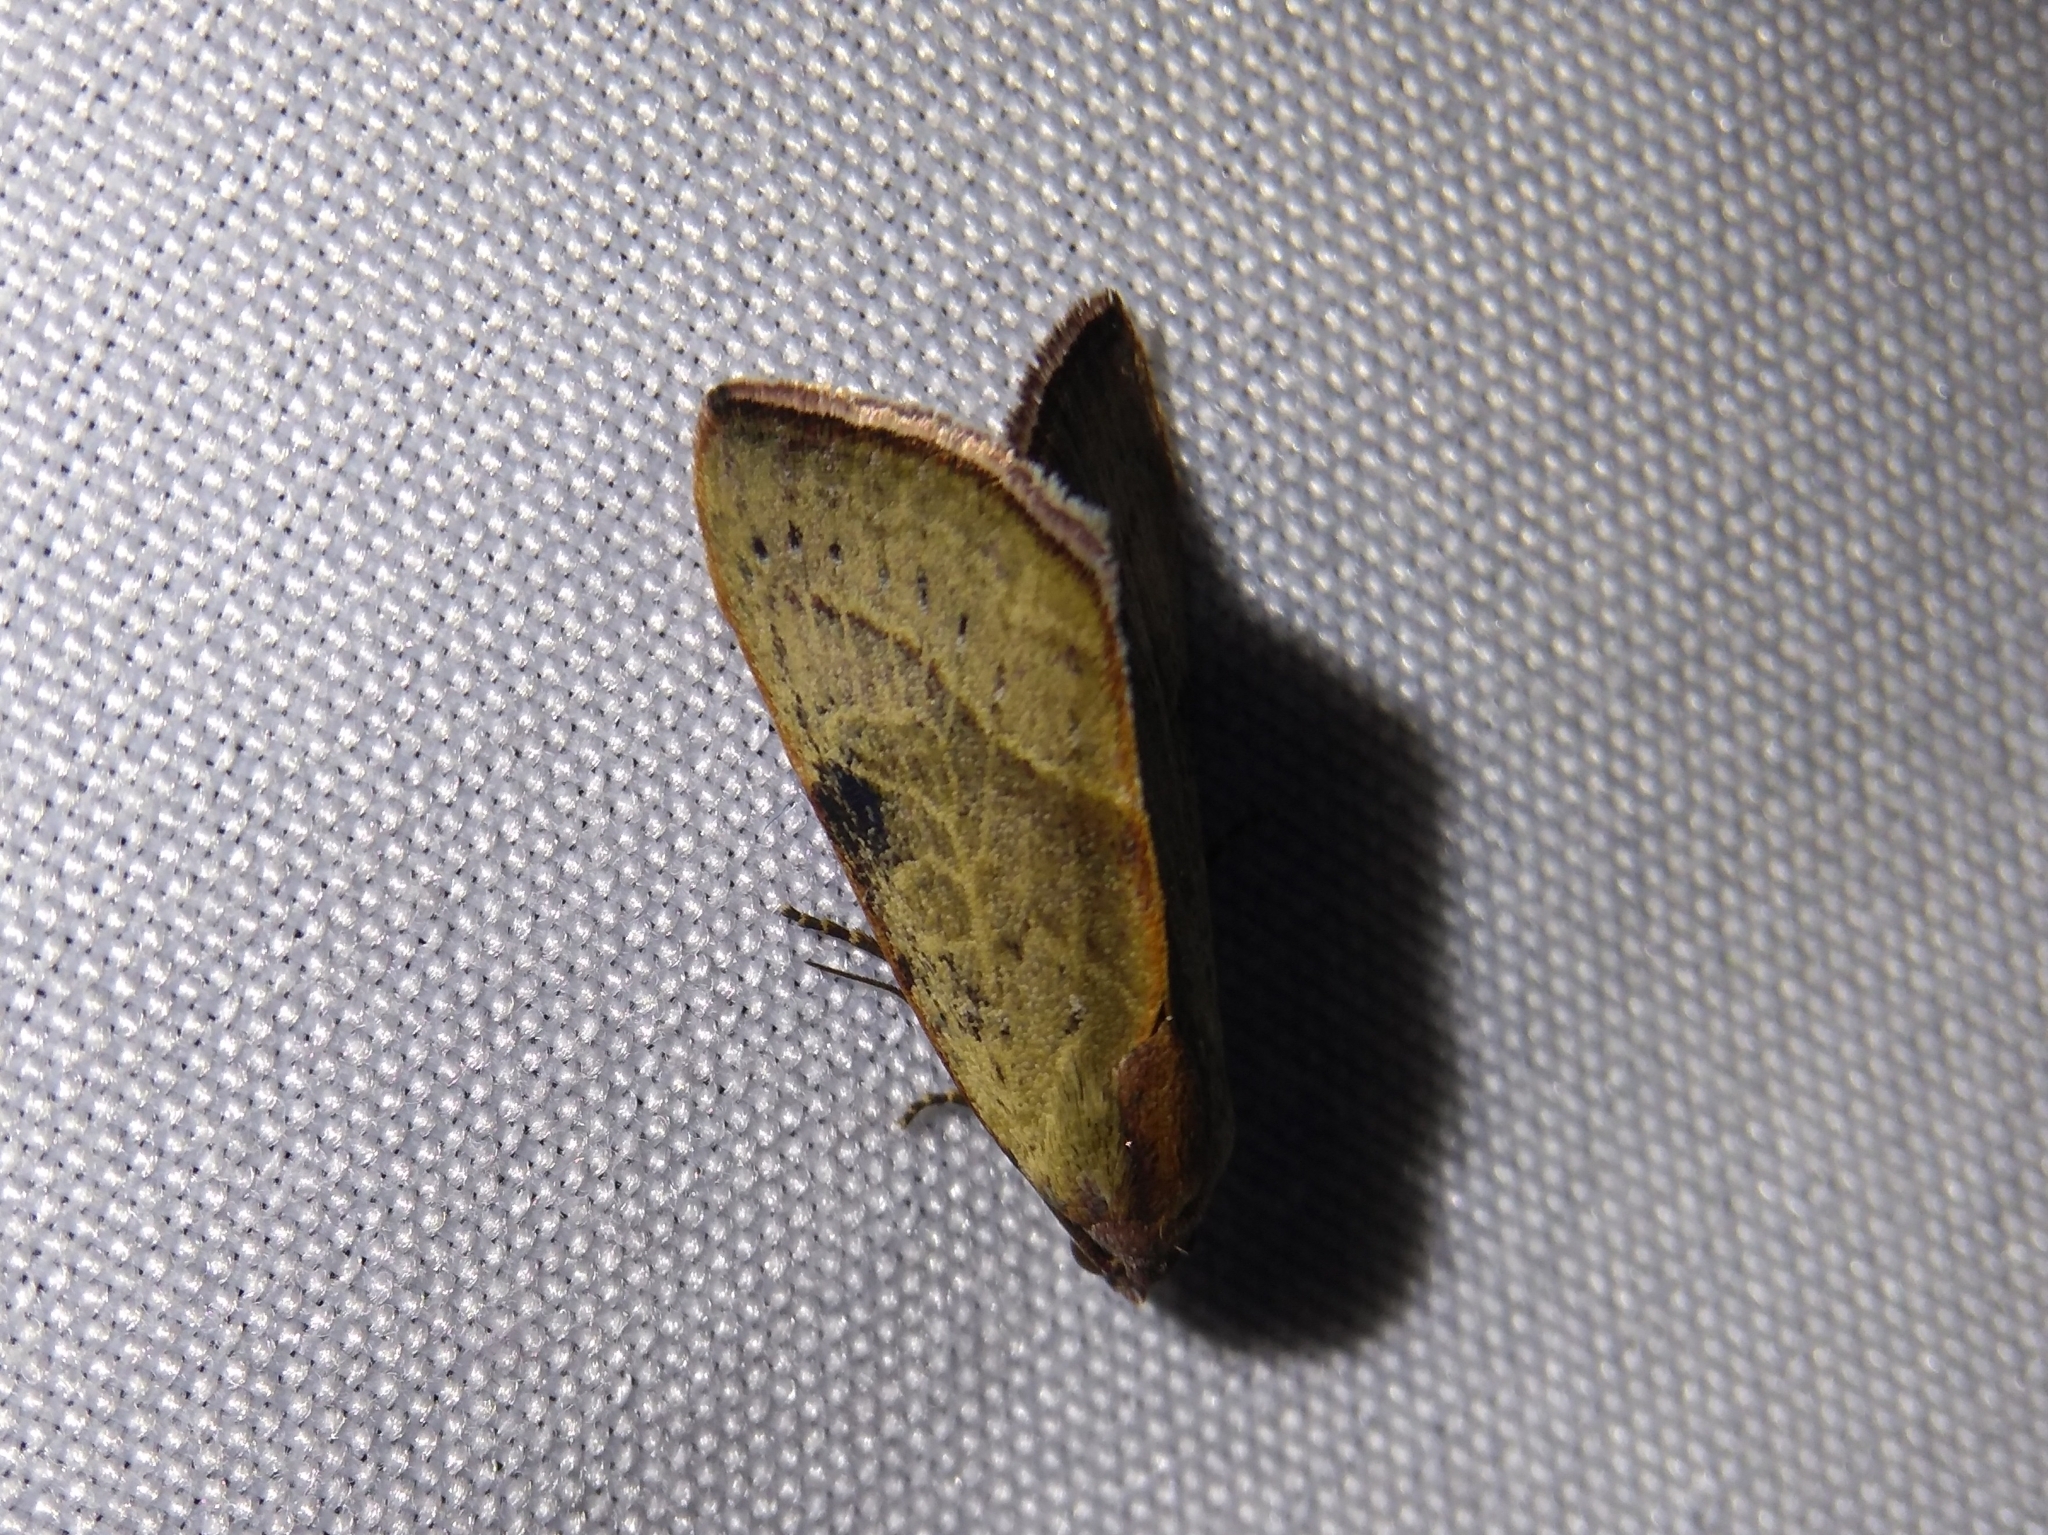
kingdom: Animalia
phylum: Arthropoda
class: Insecta
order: Lepidoptera
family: Noctuidae
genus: Galgula
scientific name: Galgula partita
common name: Wedgeling
